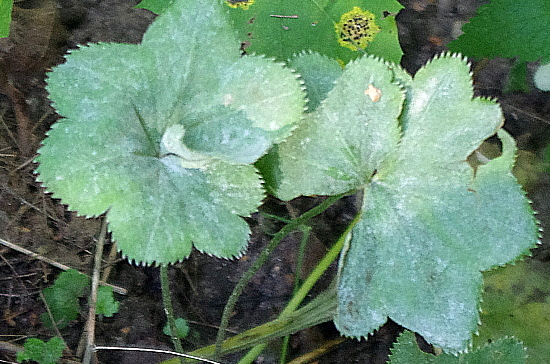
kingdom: Fungi
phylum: Ascomycota
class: Leotiomycetes
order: Helotiales
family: Erysiphaceae
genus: Podosphaera
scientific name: Podosphaera aphanis
